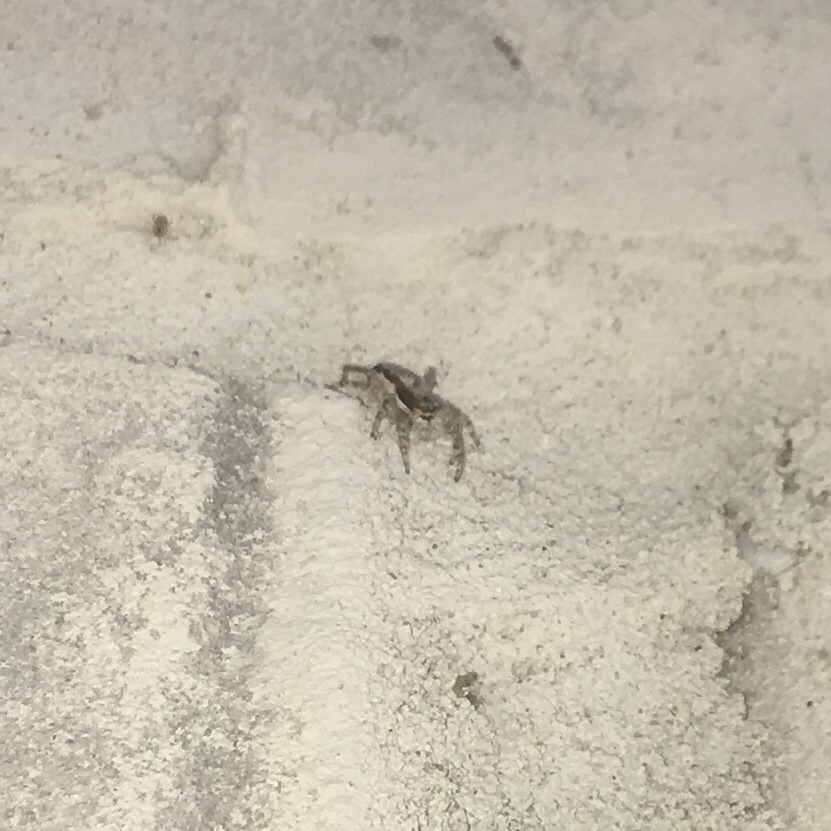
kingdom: Animalia
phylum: Arthropoda
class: Arachnida
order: Araneae
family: Salticidae
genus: Menemerus
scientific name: Menemerus bivittatus
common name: Gray wall jumper
